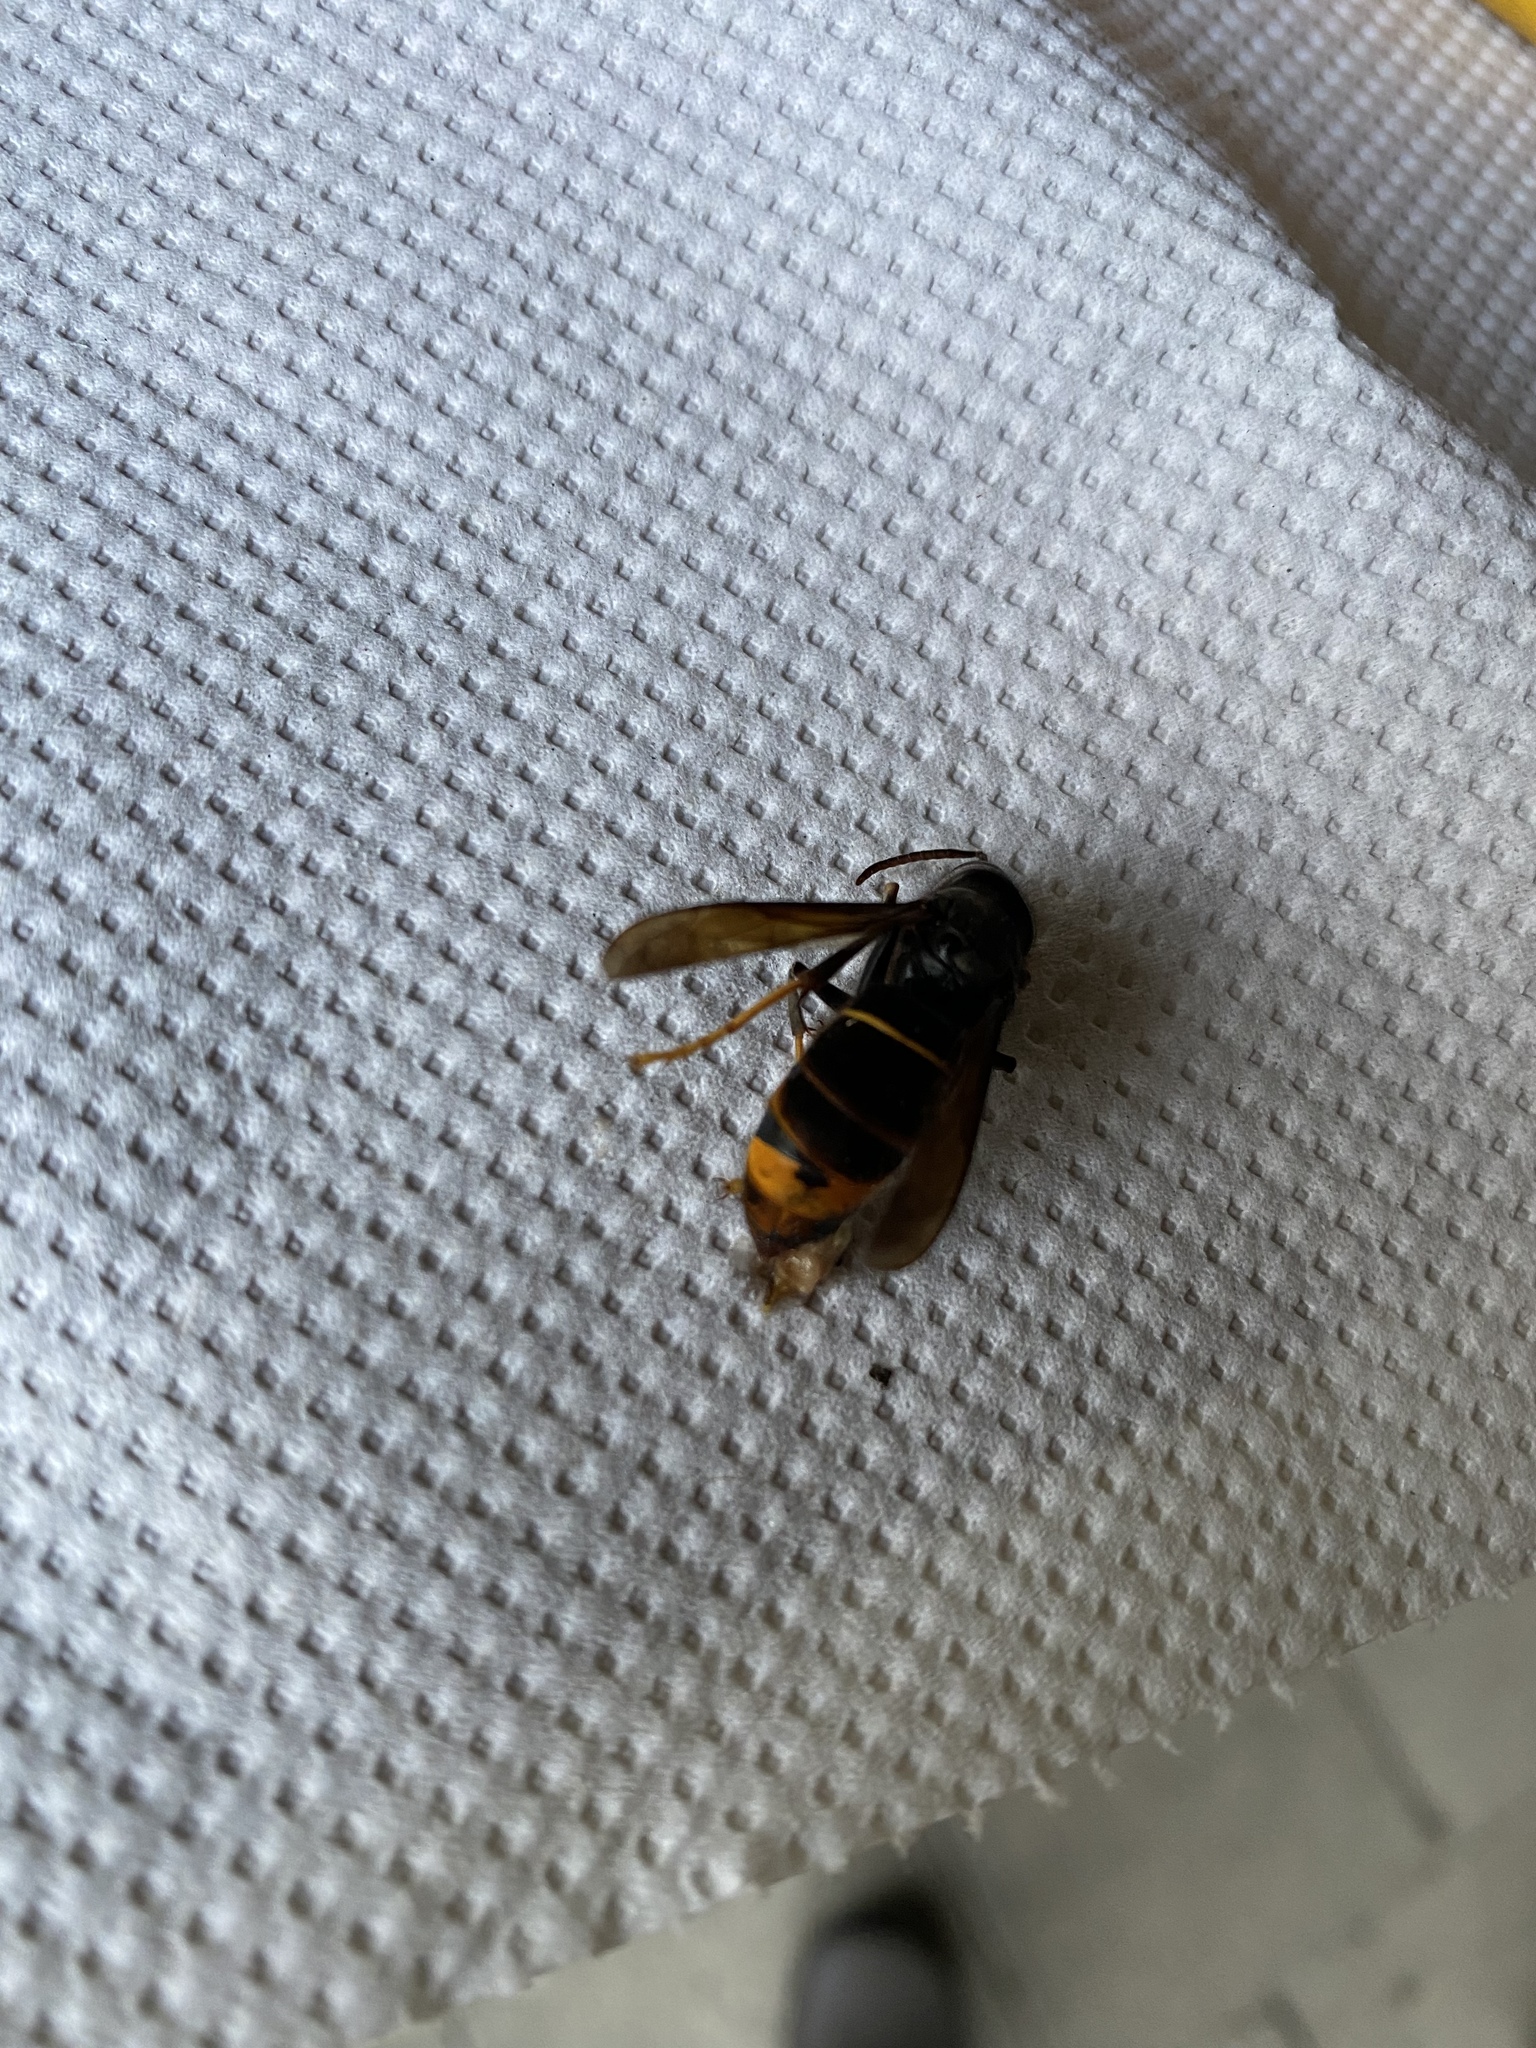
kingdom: Animalia
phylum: Arthropoda
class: Insecta
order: Hymenoptera
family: Vespidae
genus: Vespa
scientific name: Vespa velutina
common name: Asian hornet
